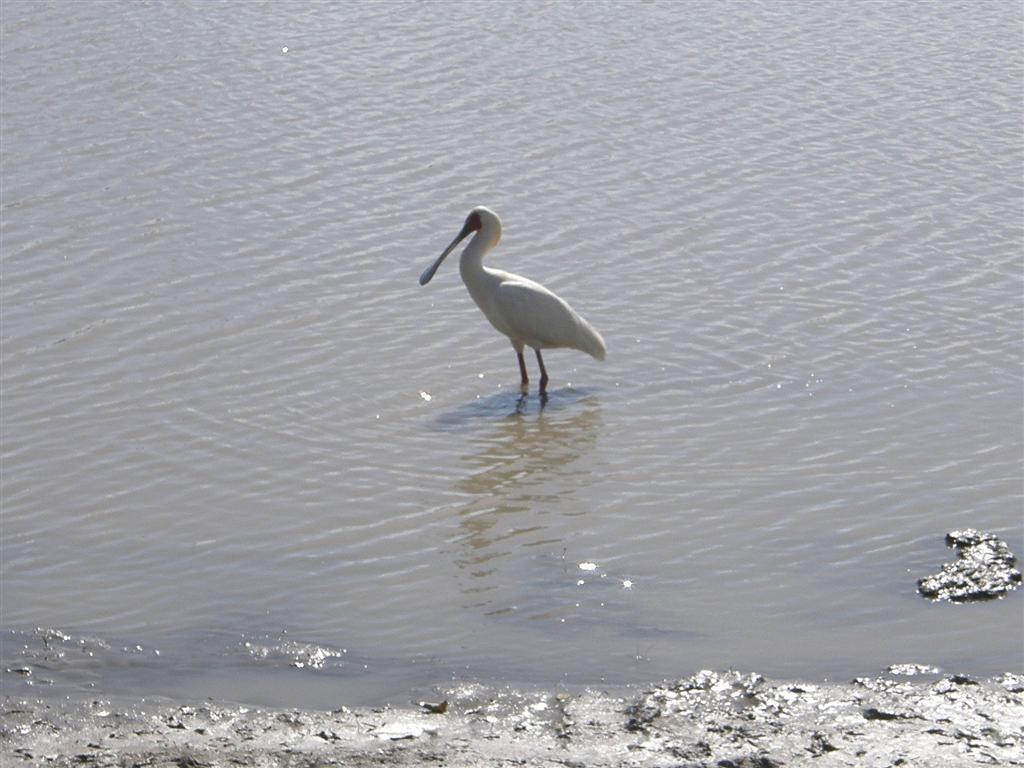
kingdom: Animalia
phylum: Chordata
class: Aves
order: Pelecaniformes
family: Threskiornithidae
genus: Platalea
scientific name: Platalea alba
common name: African spoonbill
